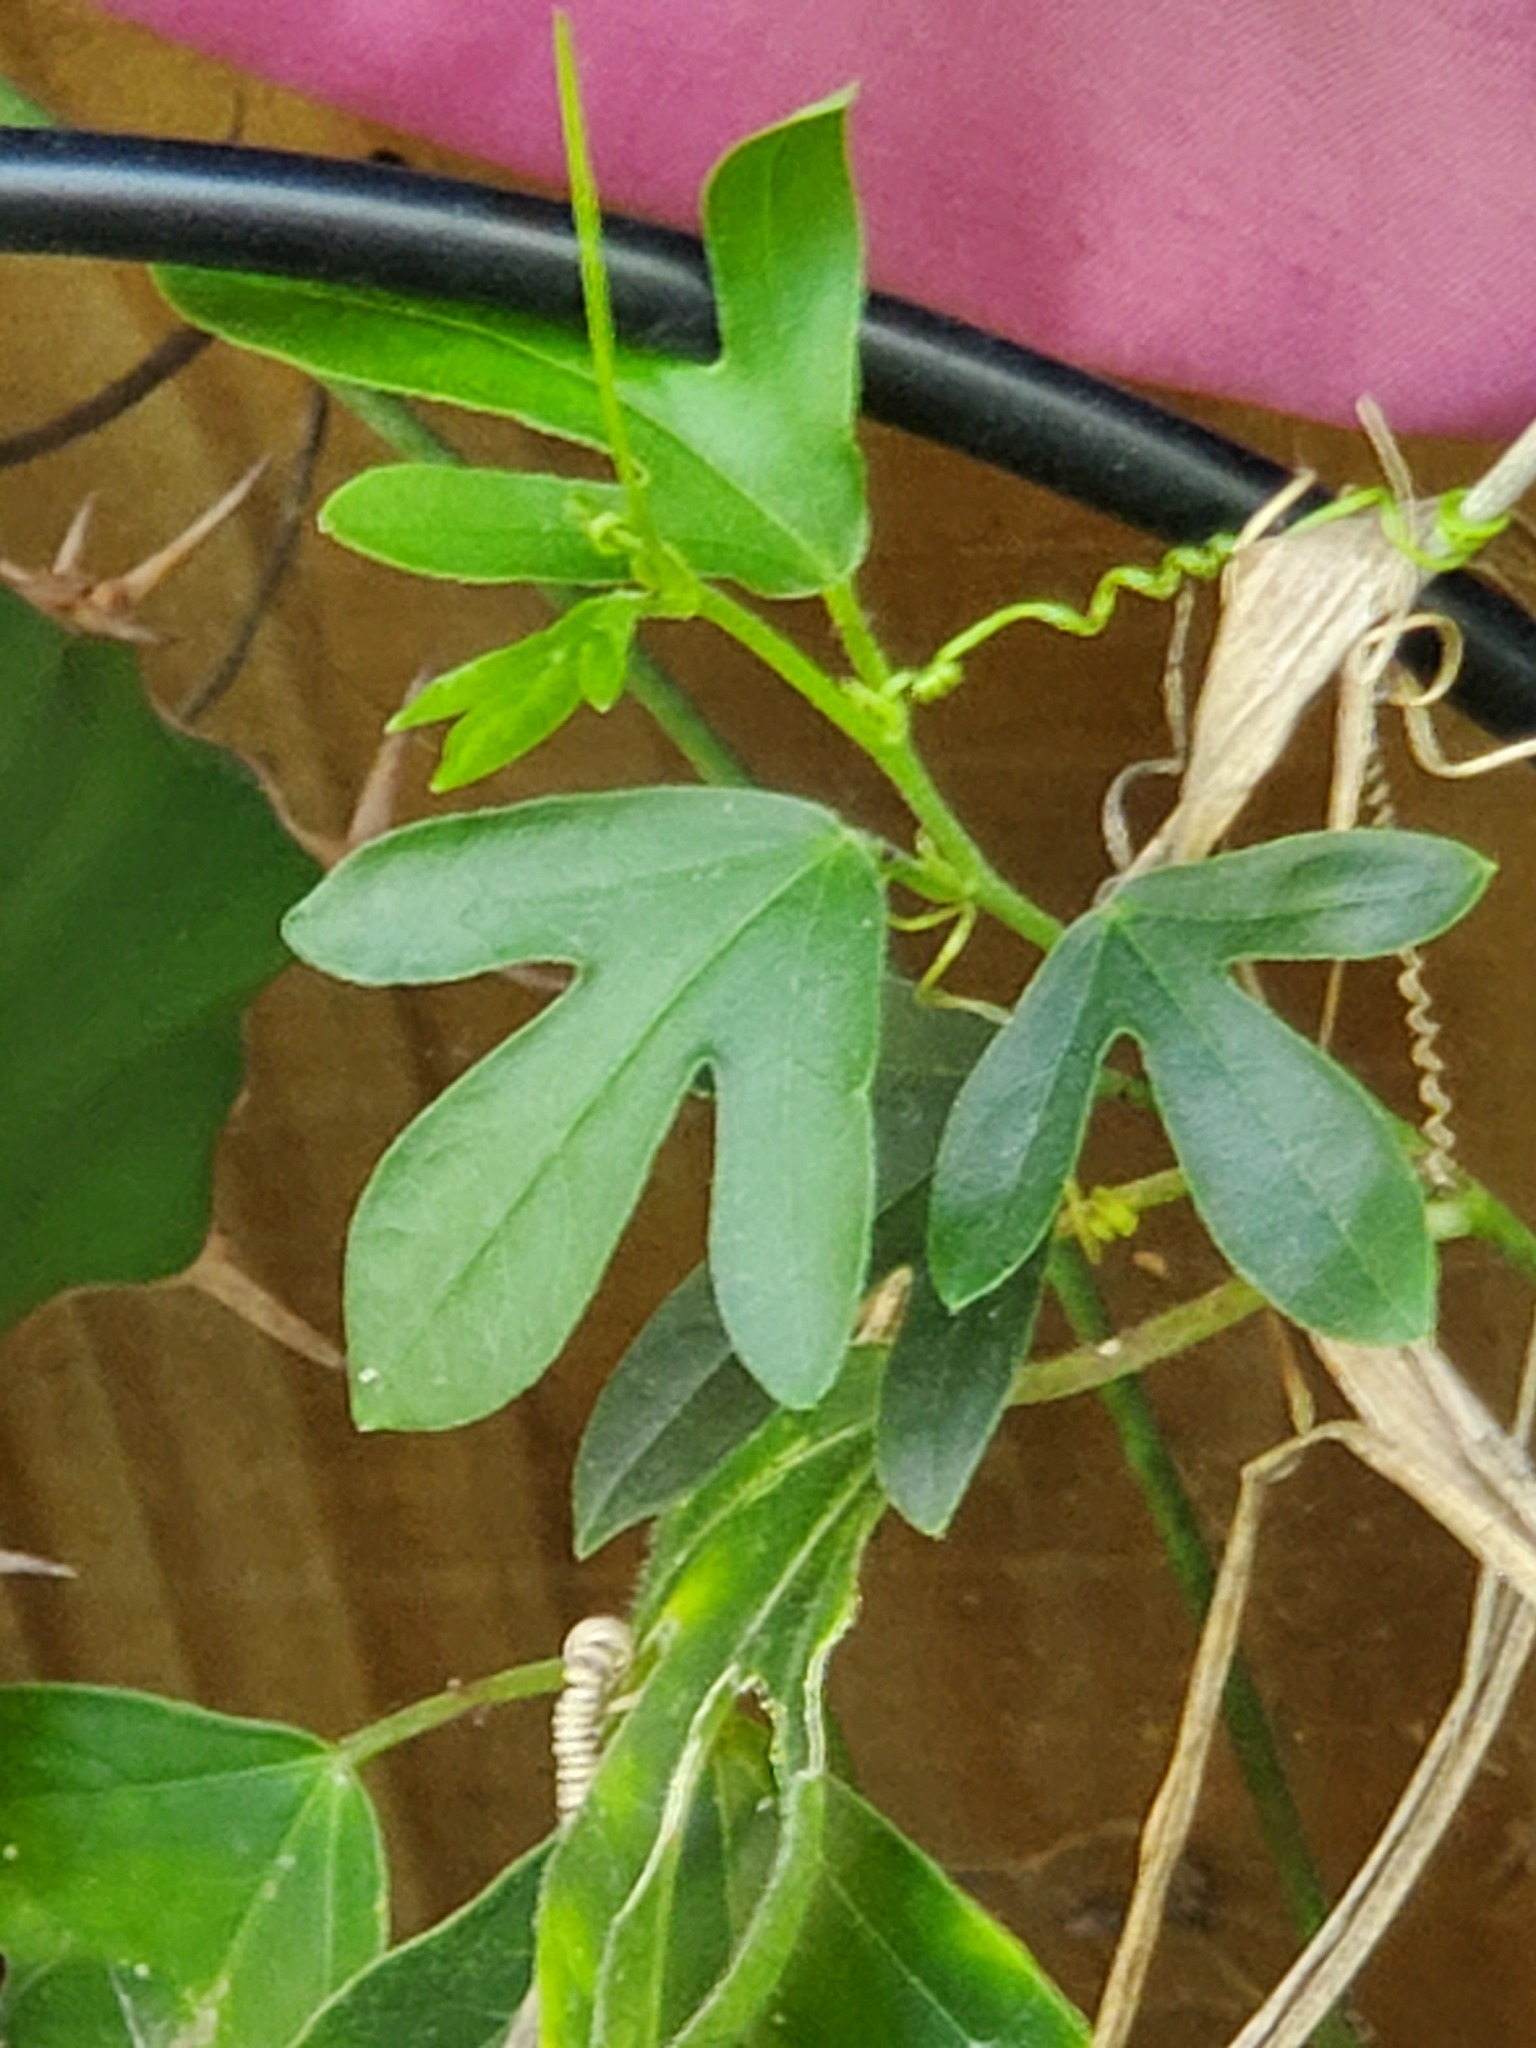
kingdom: Plantae
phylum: Tracheophyta
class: Magnoliopsida
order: Malpighiales
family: Passifloraceae
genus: Passiflora
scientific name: Passiflora pallida
